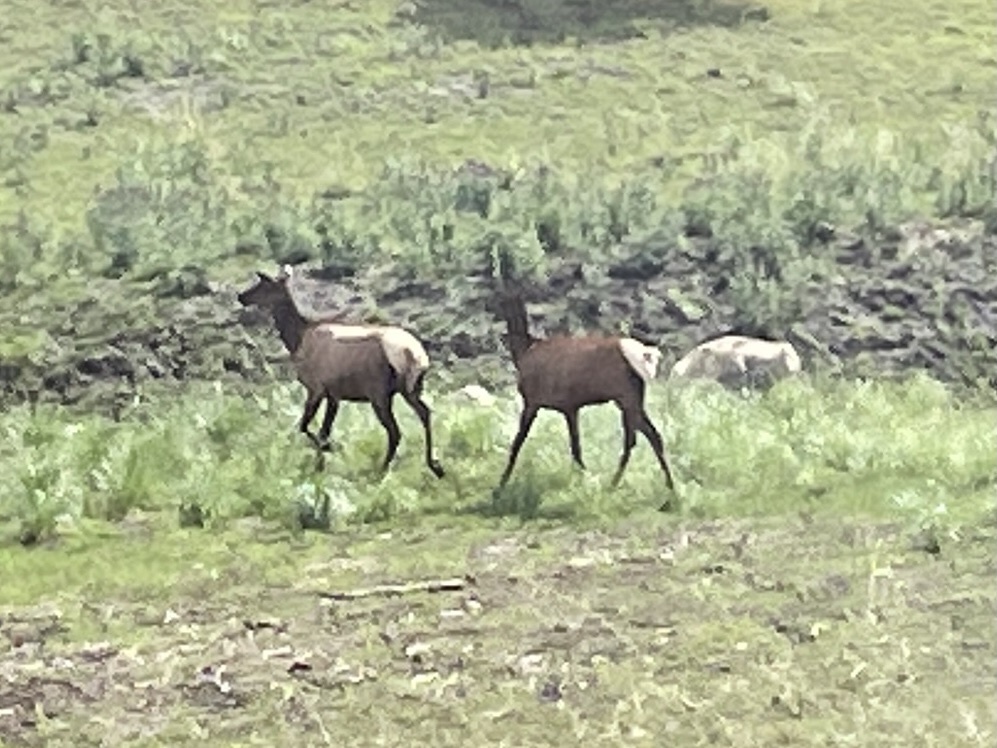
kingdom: Animalia
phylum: Chordata
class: Mammalia
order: Artiodactyla
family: Cervidae
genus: Cervus
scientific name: Cervus elaphus
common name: Red deer
